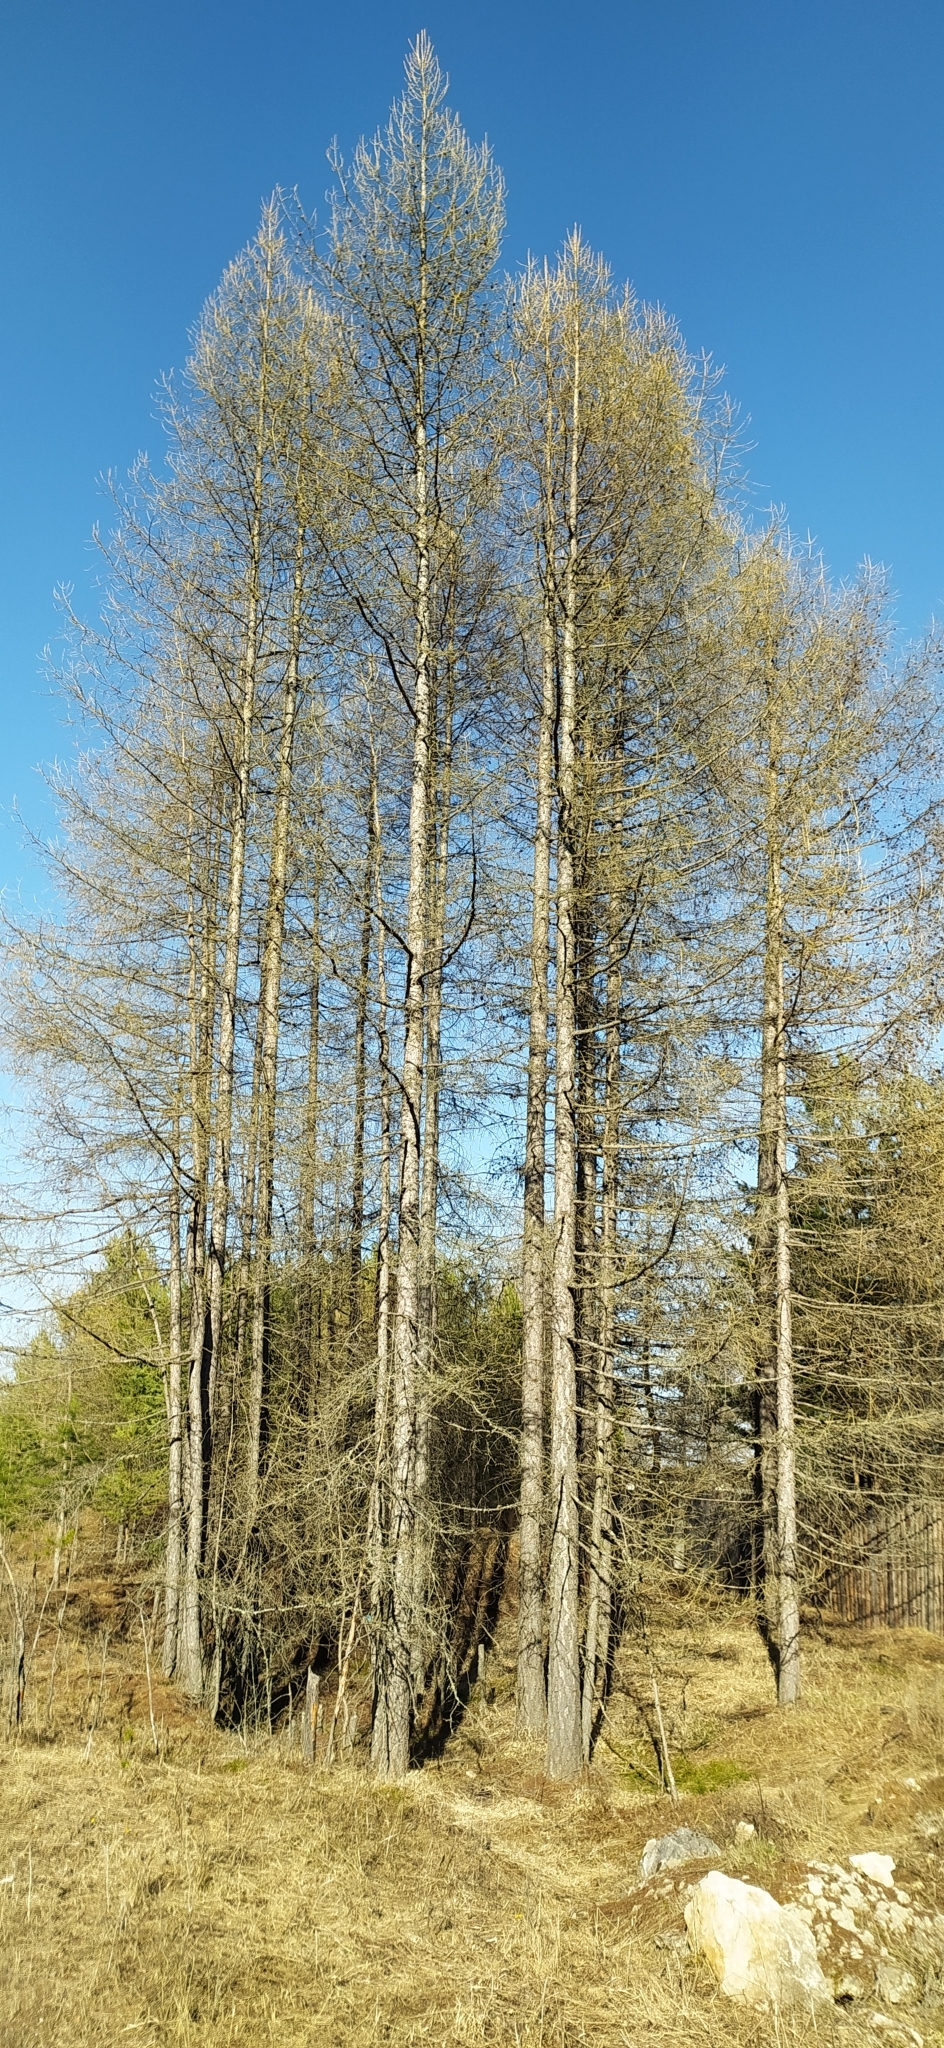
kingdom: Plantae
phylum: Tracheophyta
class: Pinopsida
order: Pinales
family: Pinaceae
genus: Larix
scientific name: Larix sibirica
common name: Siberian larch
